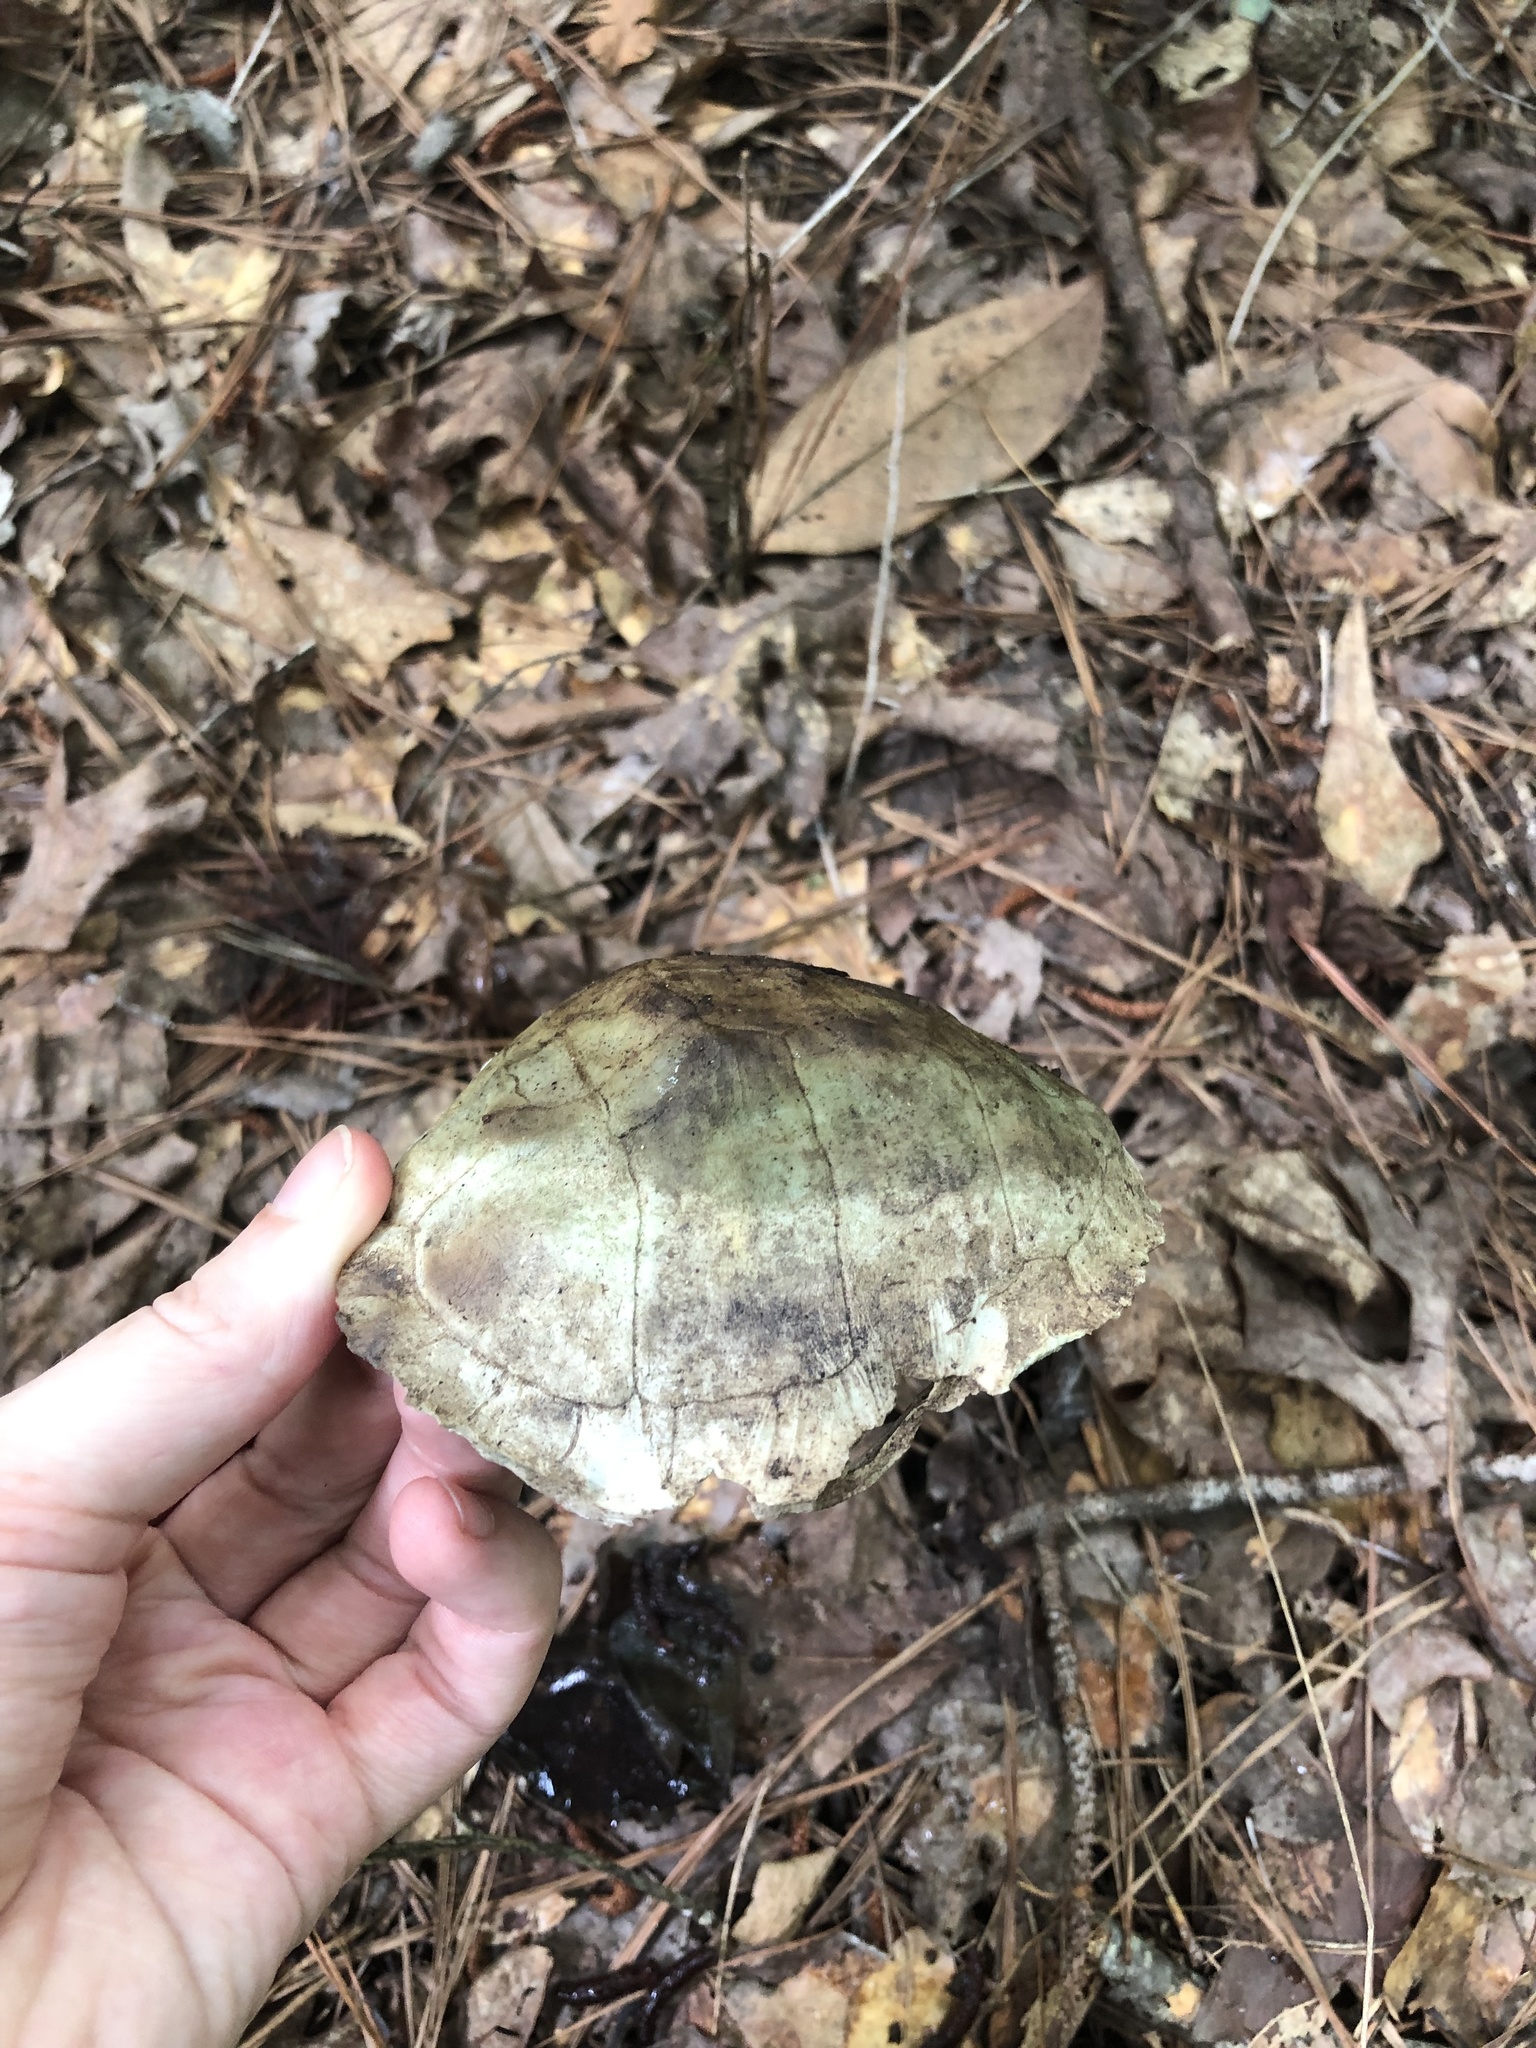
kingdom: Animalia
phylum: Chordata
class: Testudines
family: Emydidae
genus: Terrapene
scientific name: Terrapene carolina
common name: Common box turtle
